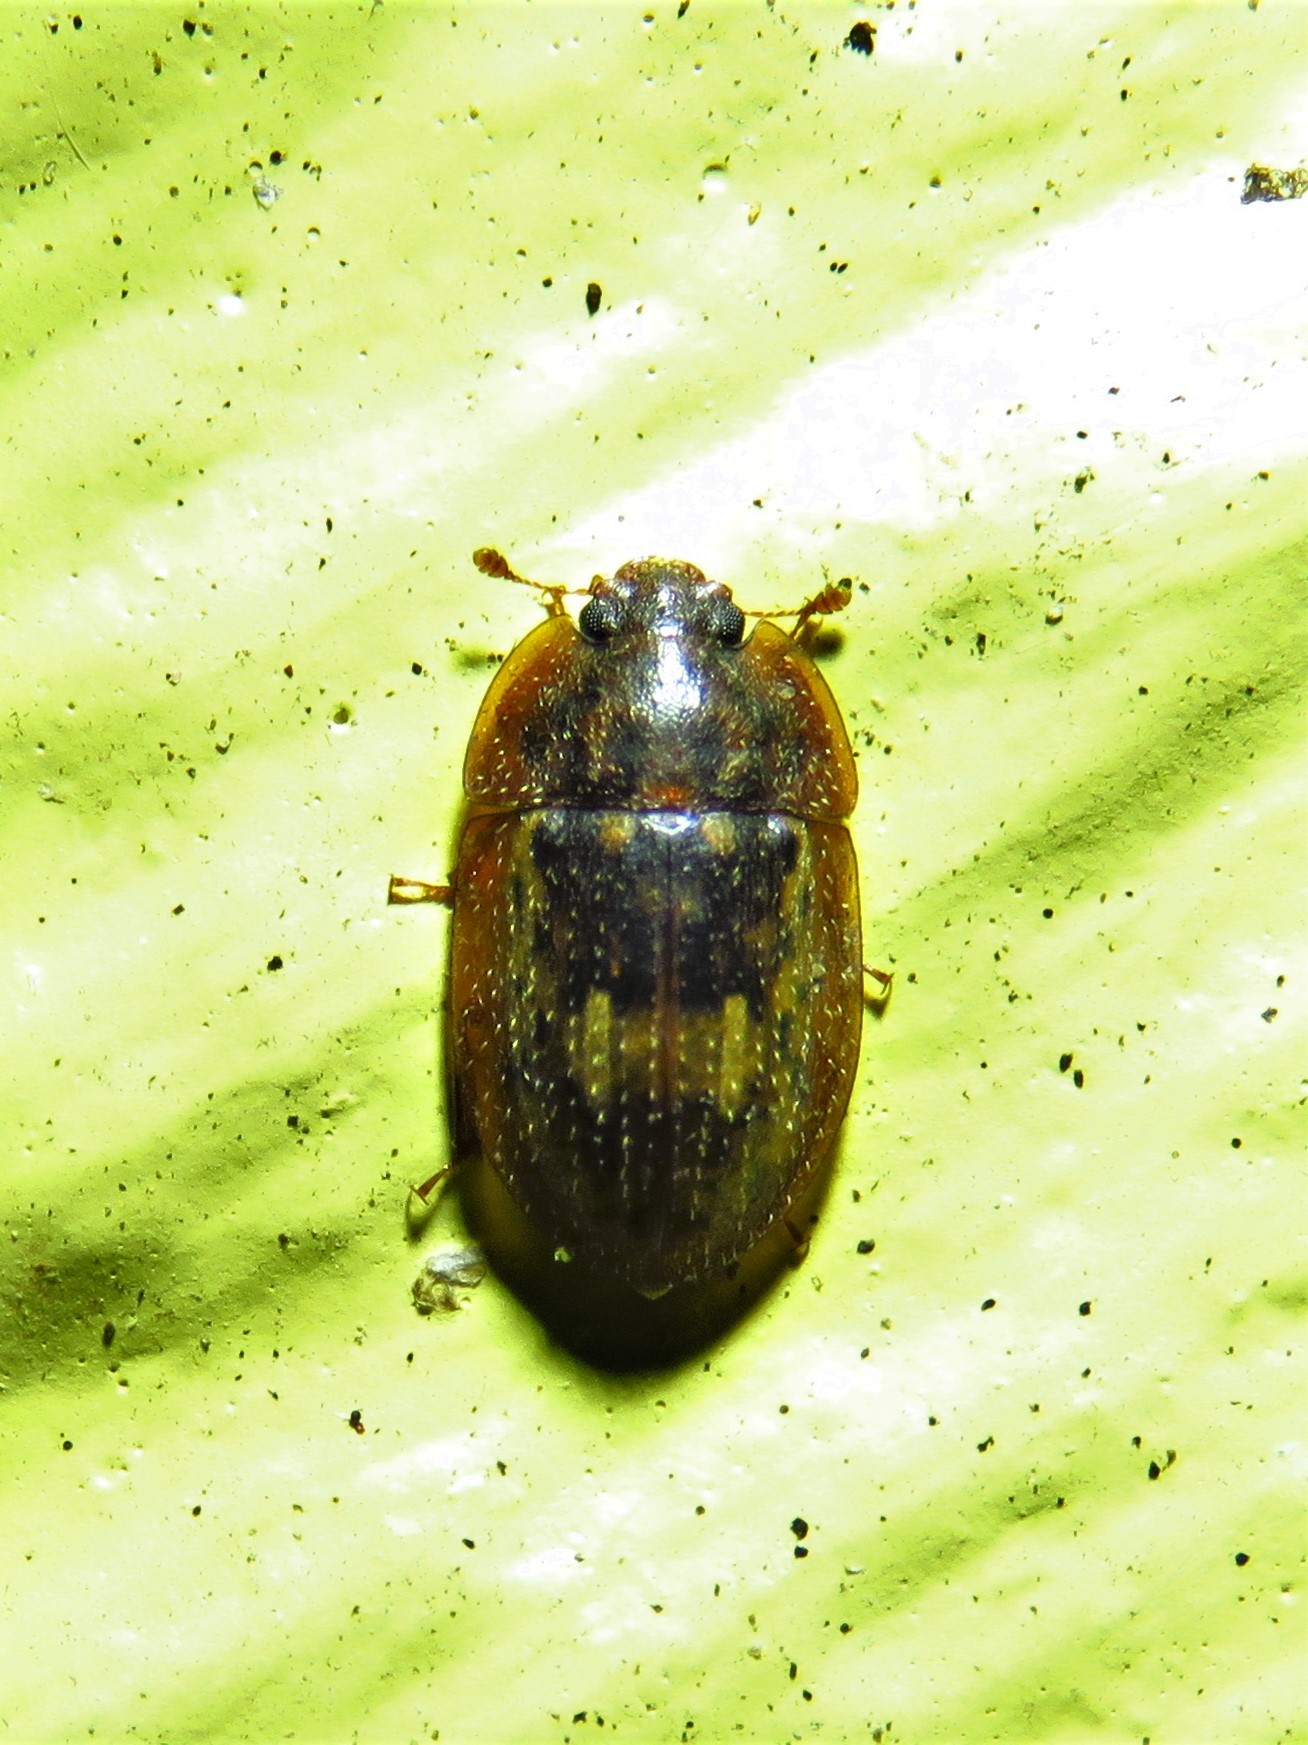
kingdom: Animalia
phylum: Arthropoda
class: Insecta
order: Coleoptera
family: Nitidulidae
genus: Lobiopa
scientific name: Lobiopa insularis
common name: Sap beetle
